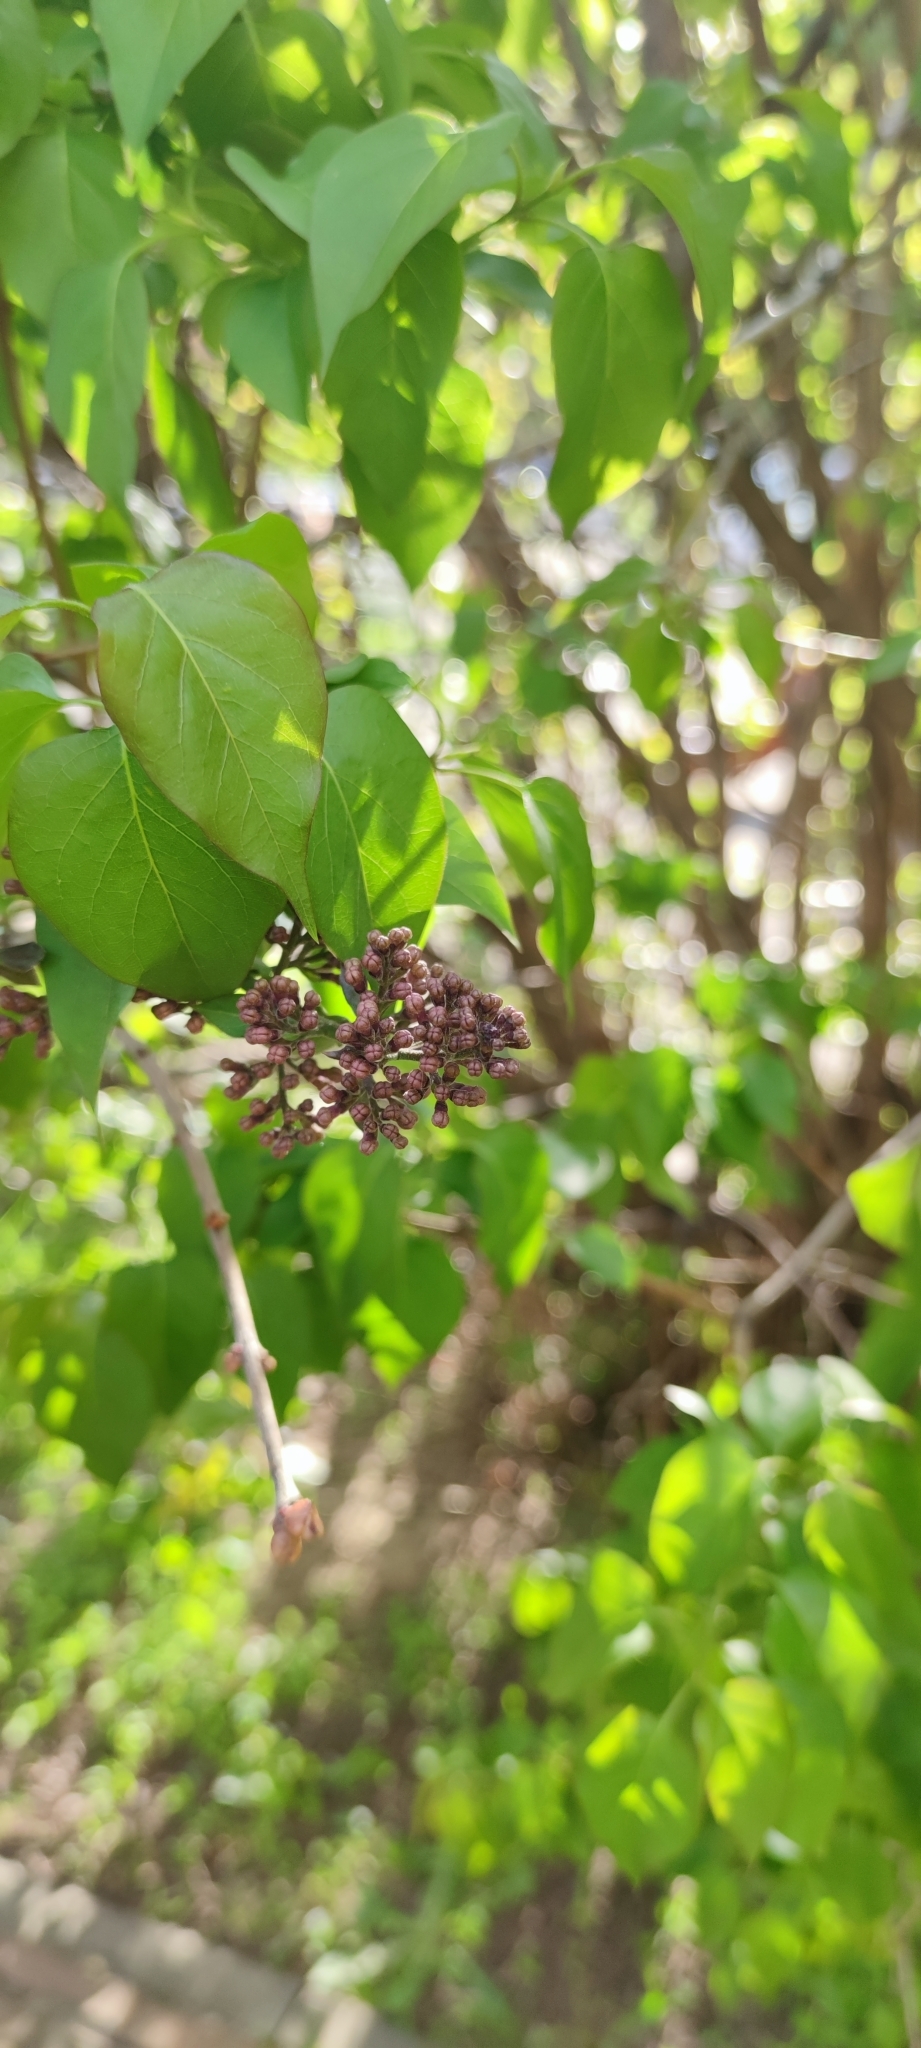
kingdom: Plantae
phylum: Tracheophyta
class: Magnoliopsida
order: Lamiales
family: Oleaceae
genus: Syringa
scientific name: Syringa vulgaris
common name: Common lilac
